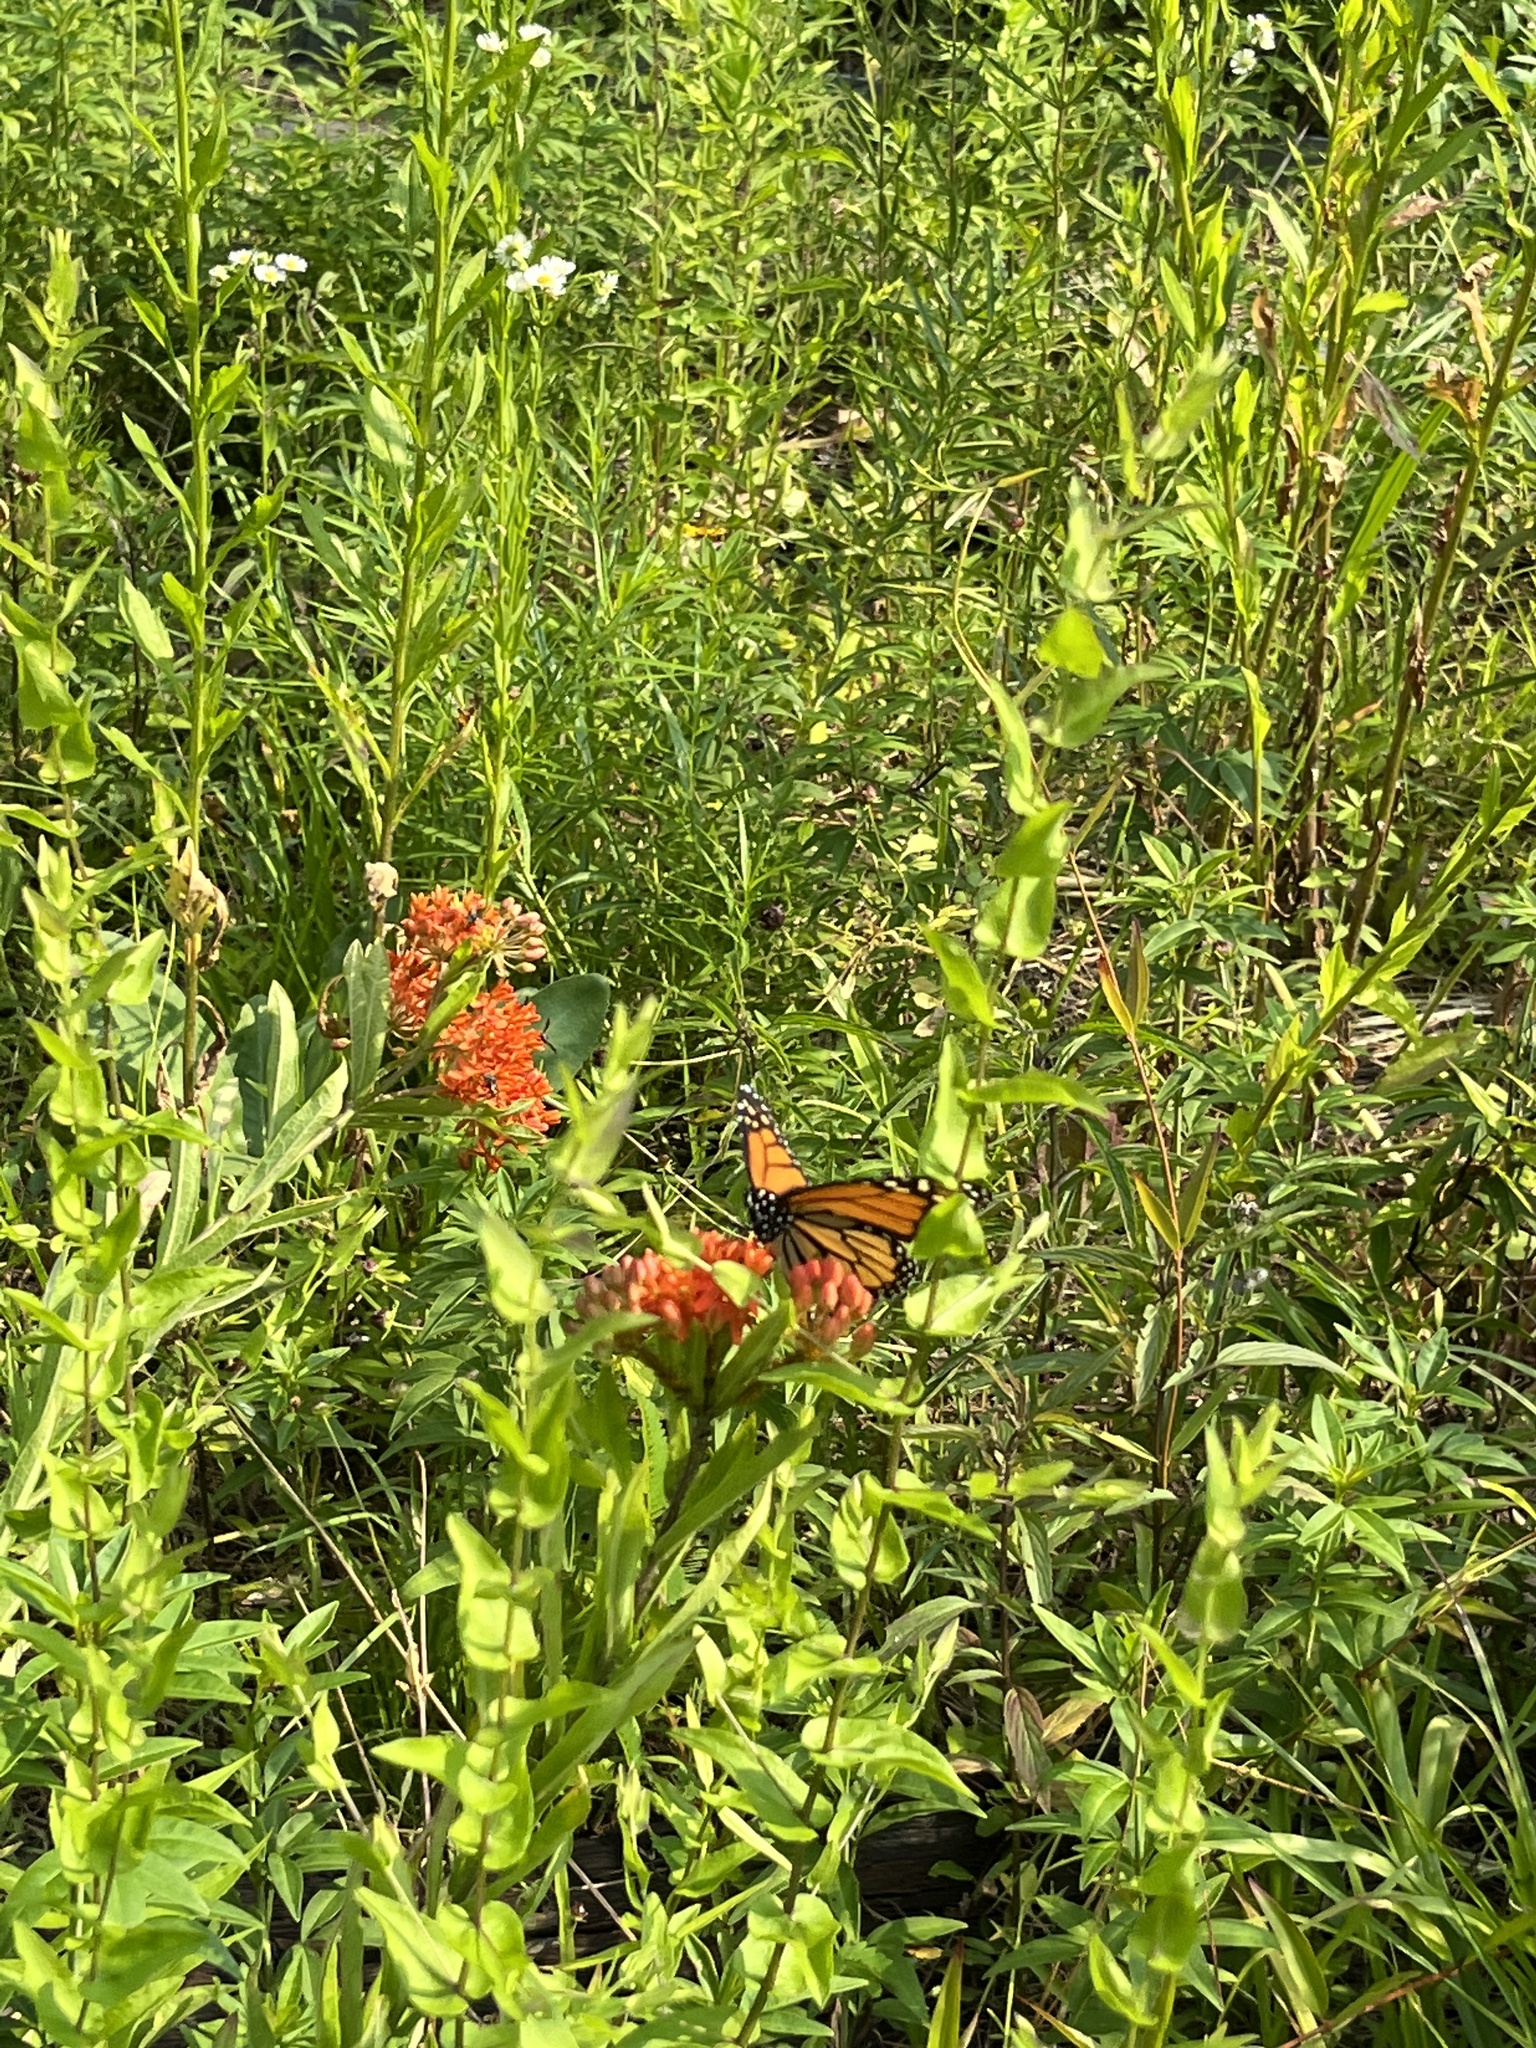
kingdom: Animalia
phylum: Arthropoda
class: Insecta
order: Lepidoptera
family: Nymphalidae
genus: Danaus
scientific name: Danaus plexippus
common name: Monarch
